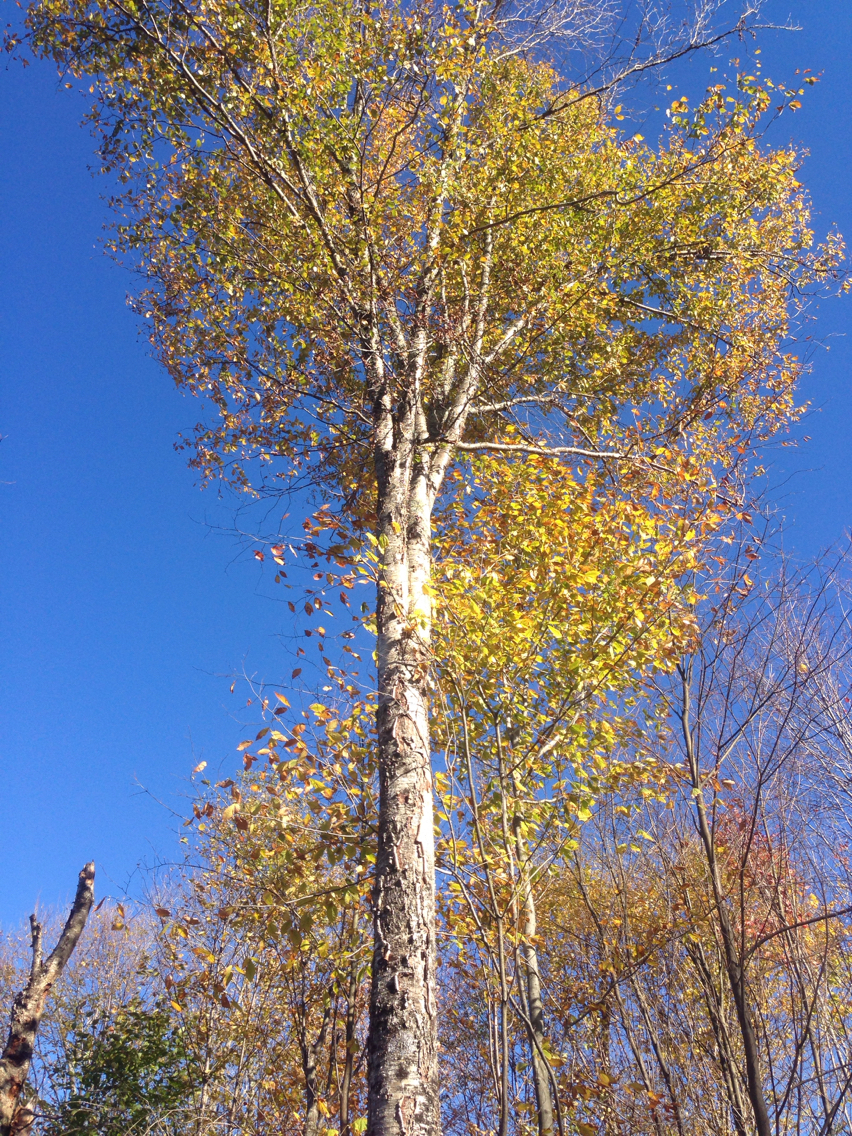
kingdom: Plantae
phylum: Tracheophyta
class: Magnoliopsida
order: Fagales
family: Betulaceae
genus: Betula
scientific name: Betula alleghaniensis
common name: Yellow birch
